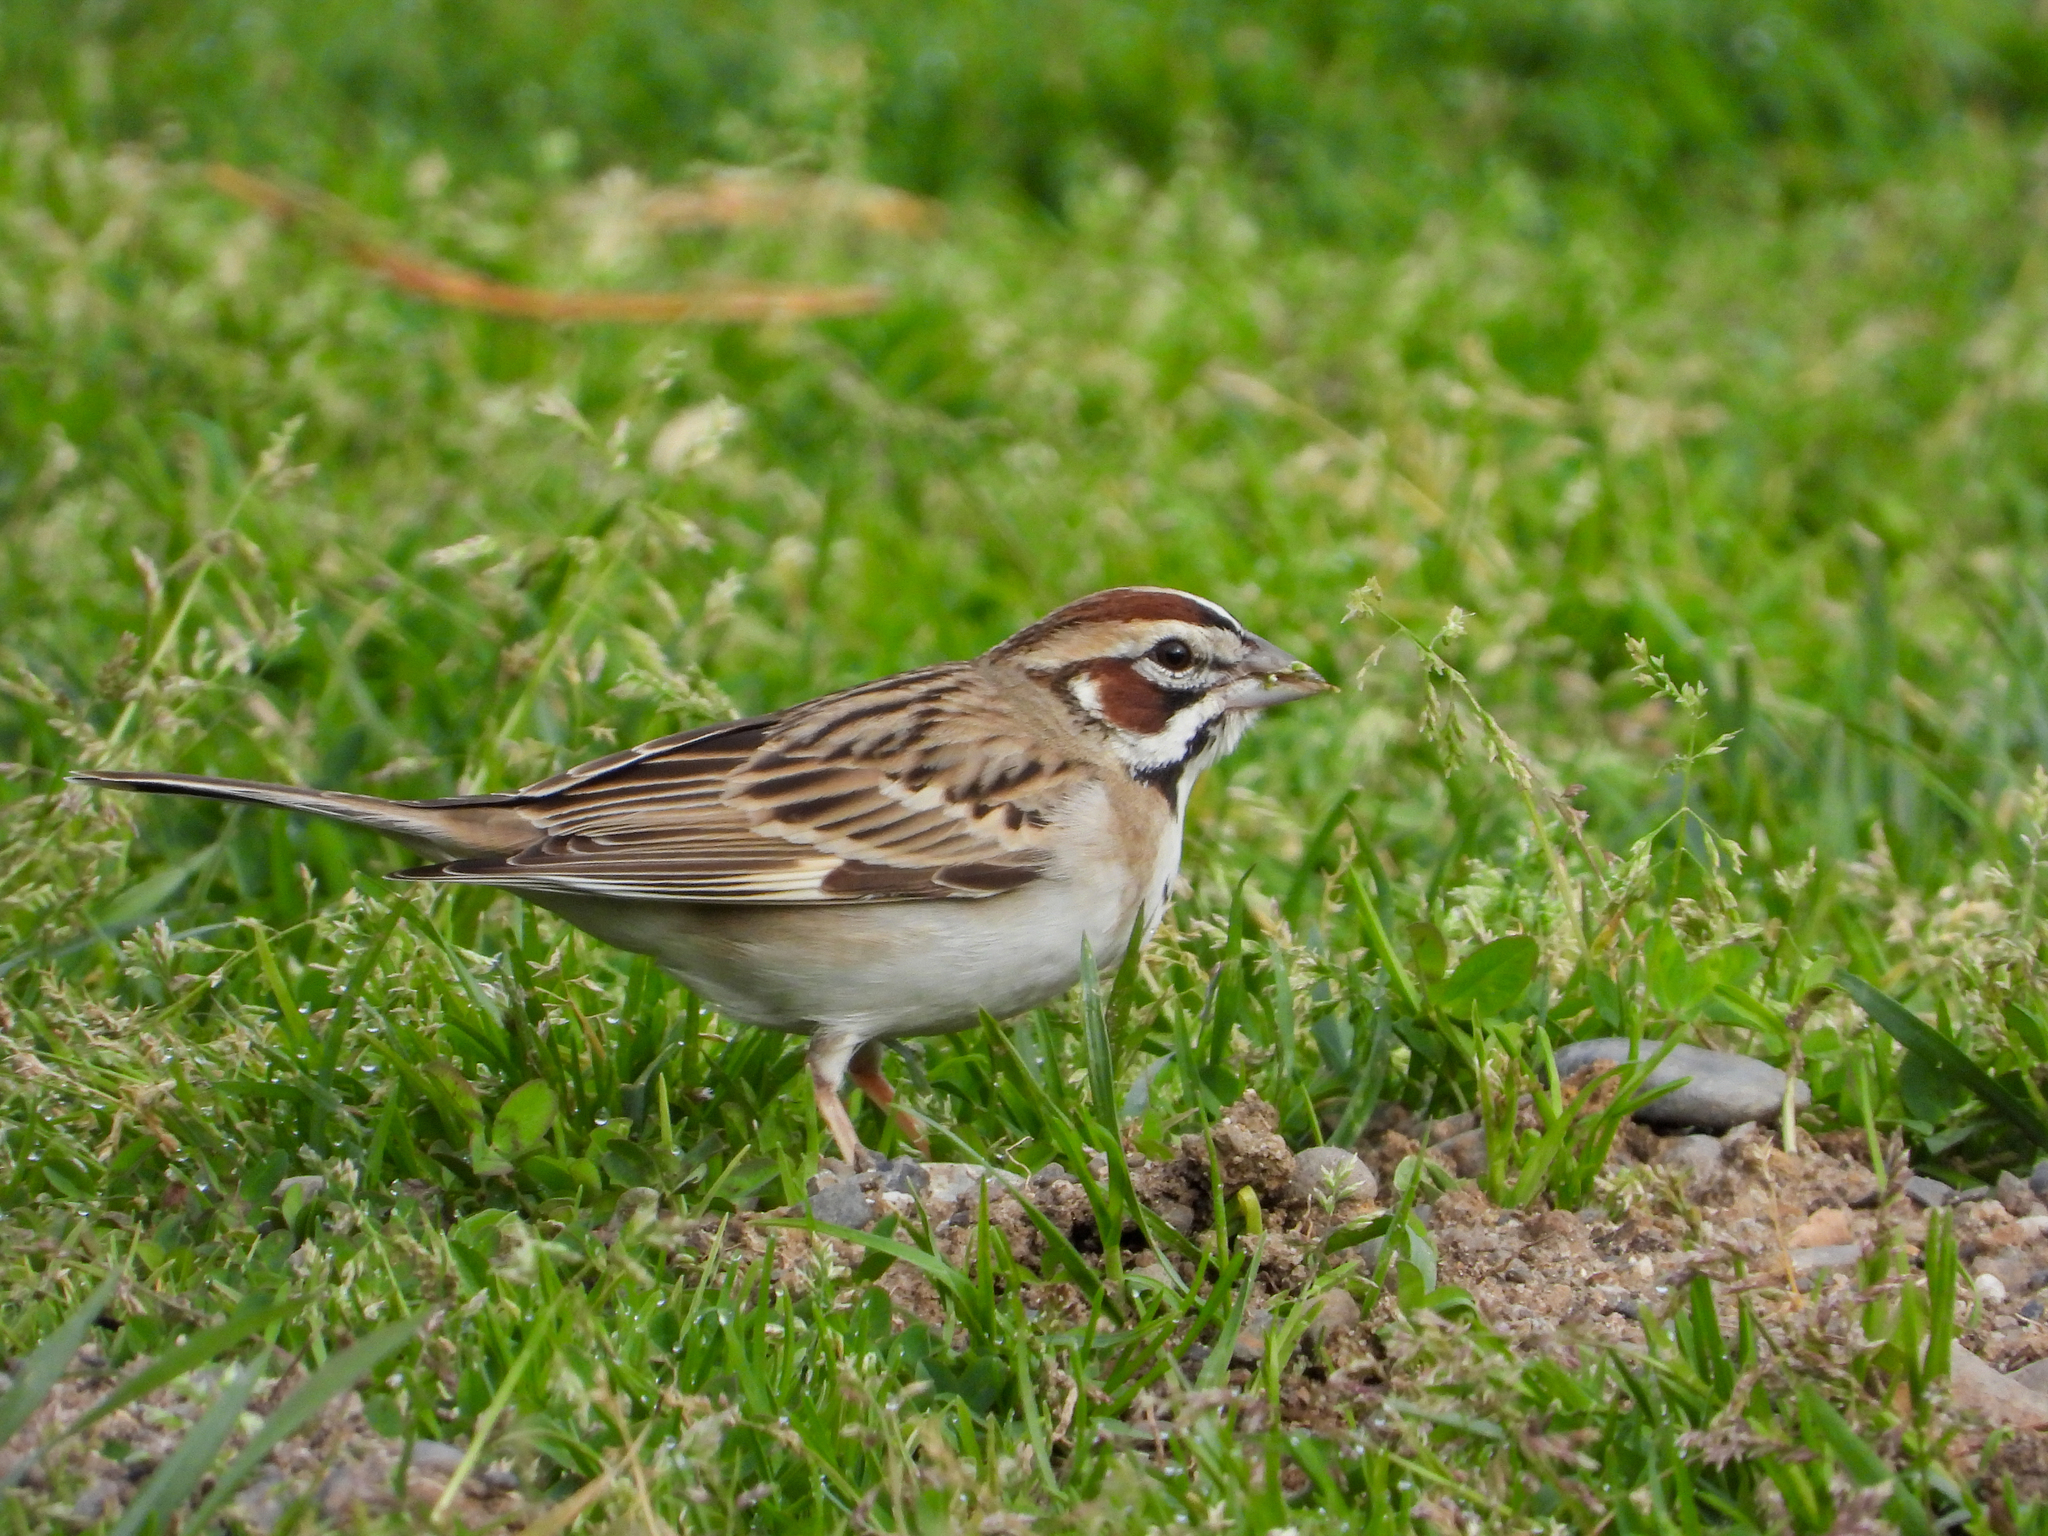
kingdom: Animalia
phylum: Chordata
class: Aves
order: Passeriformes
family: Passerellidae
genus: Chondestes
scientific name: Chondestes grammacus
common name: Lark sparrow
